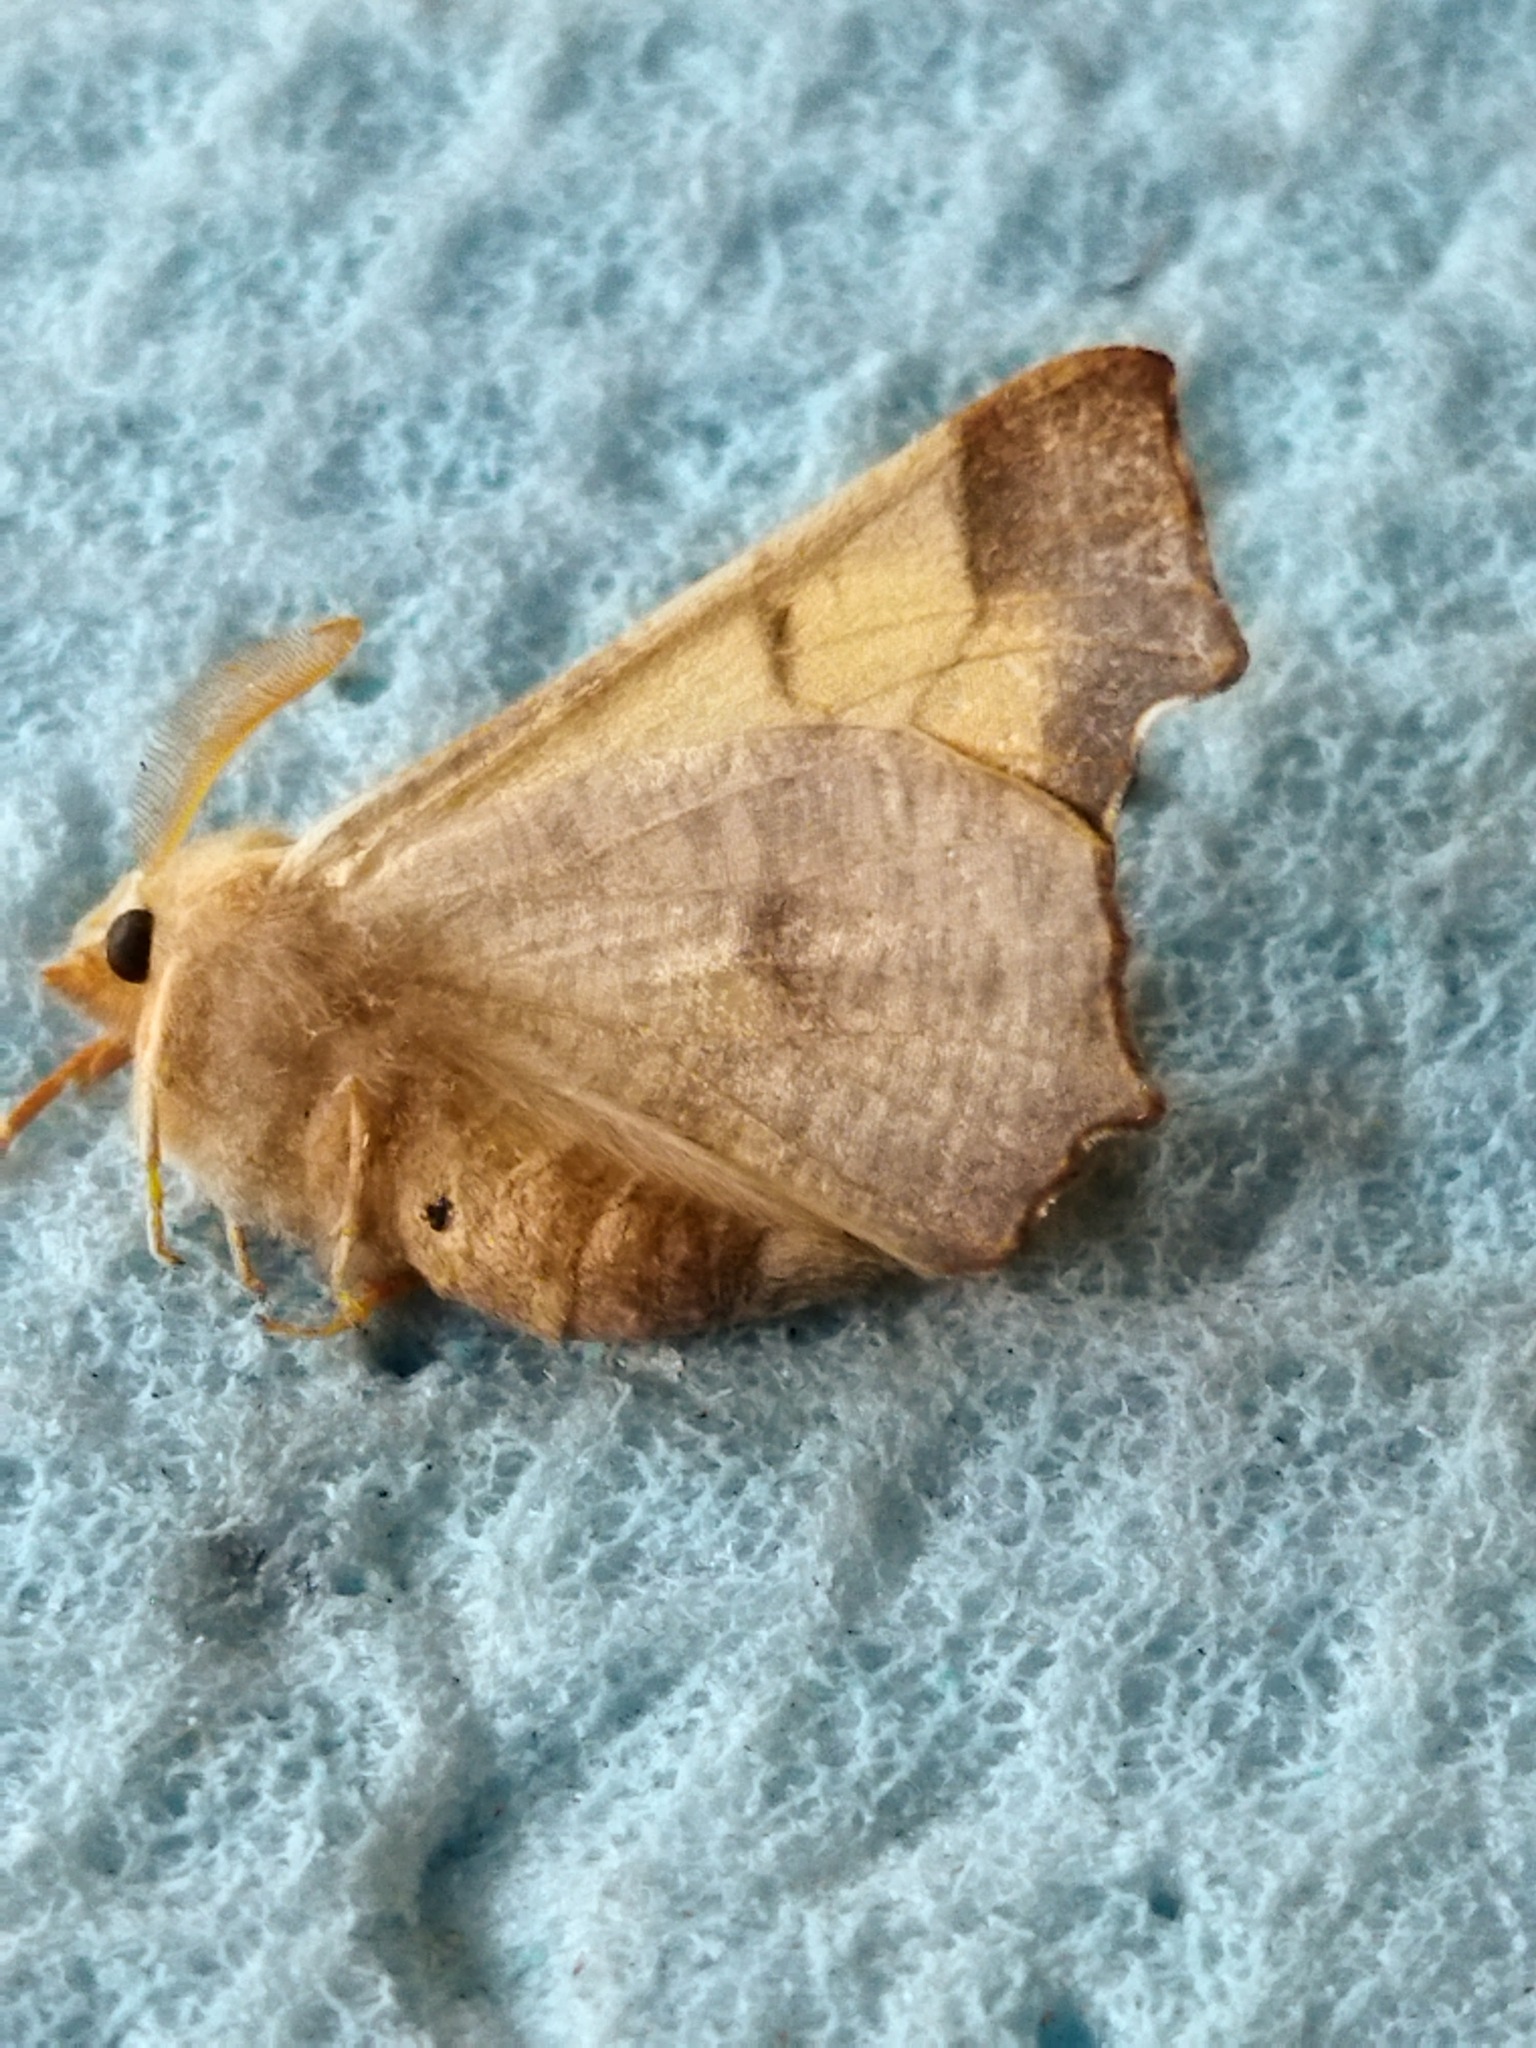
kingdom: Animalia
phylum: Arthropoda
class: Insecta
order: Lepidoptera
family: Geometridae
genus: Ennomos
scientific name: Ennomos fuscantaria
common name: Dusky thorn
